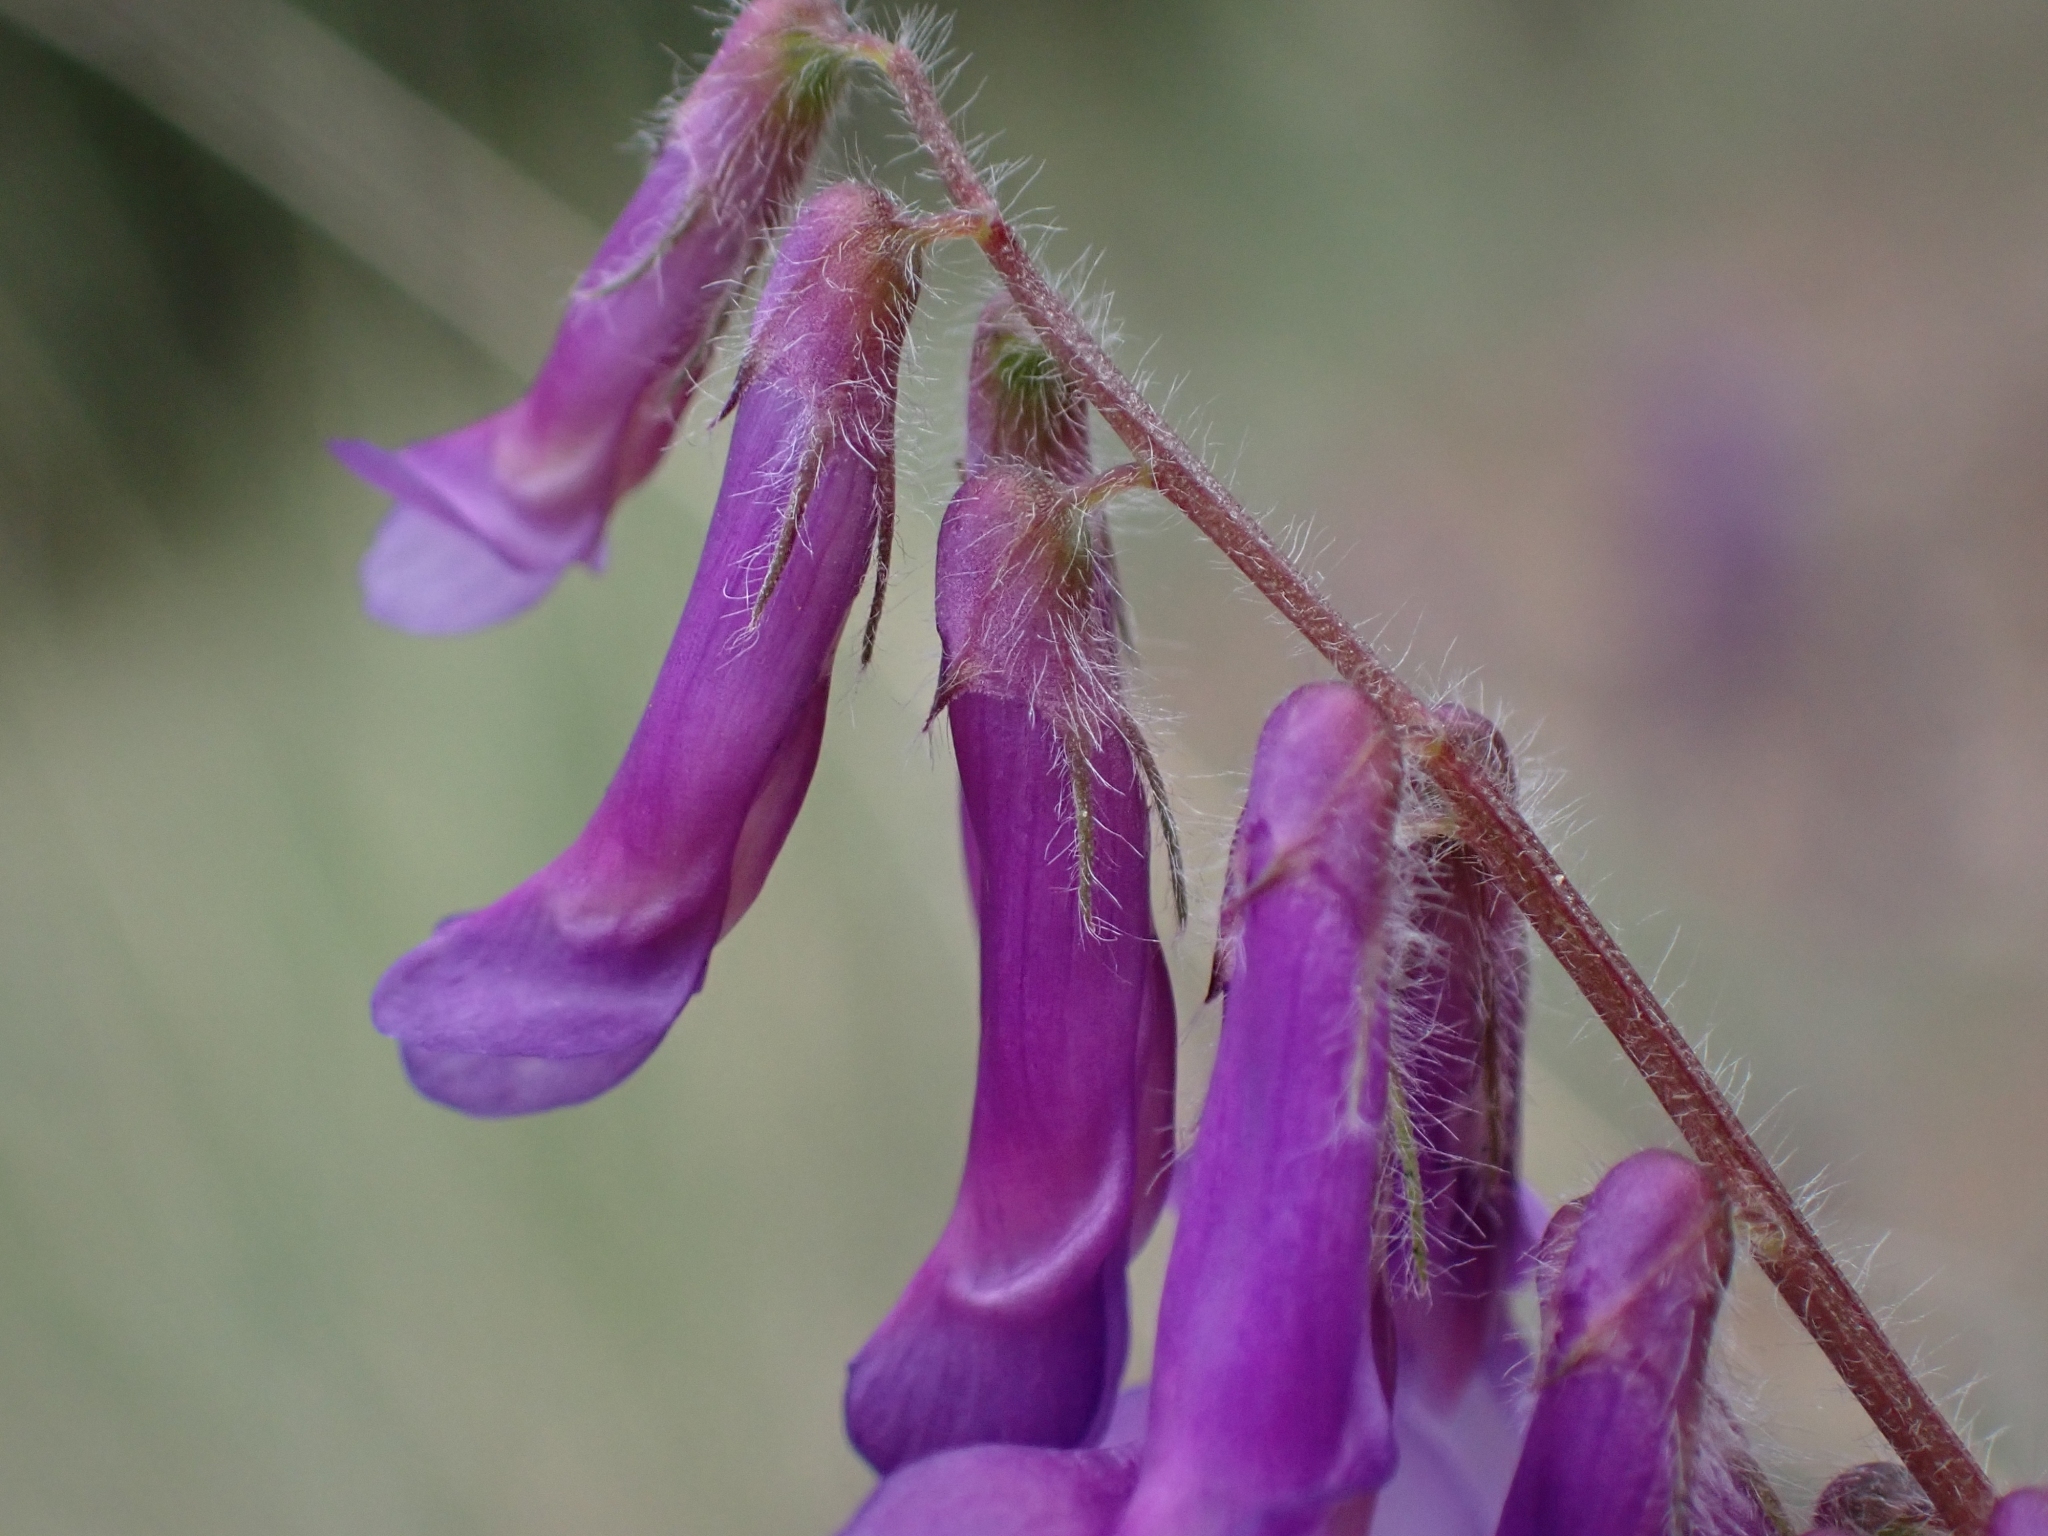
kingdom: Plantae
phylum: Tracheophyta
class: Magnoliopsida
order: Fabales
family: Fabaceae
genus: Vicia
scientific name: Vicia villosa
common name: Fodder vetch
